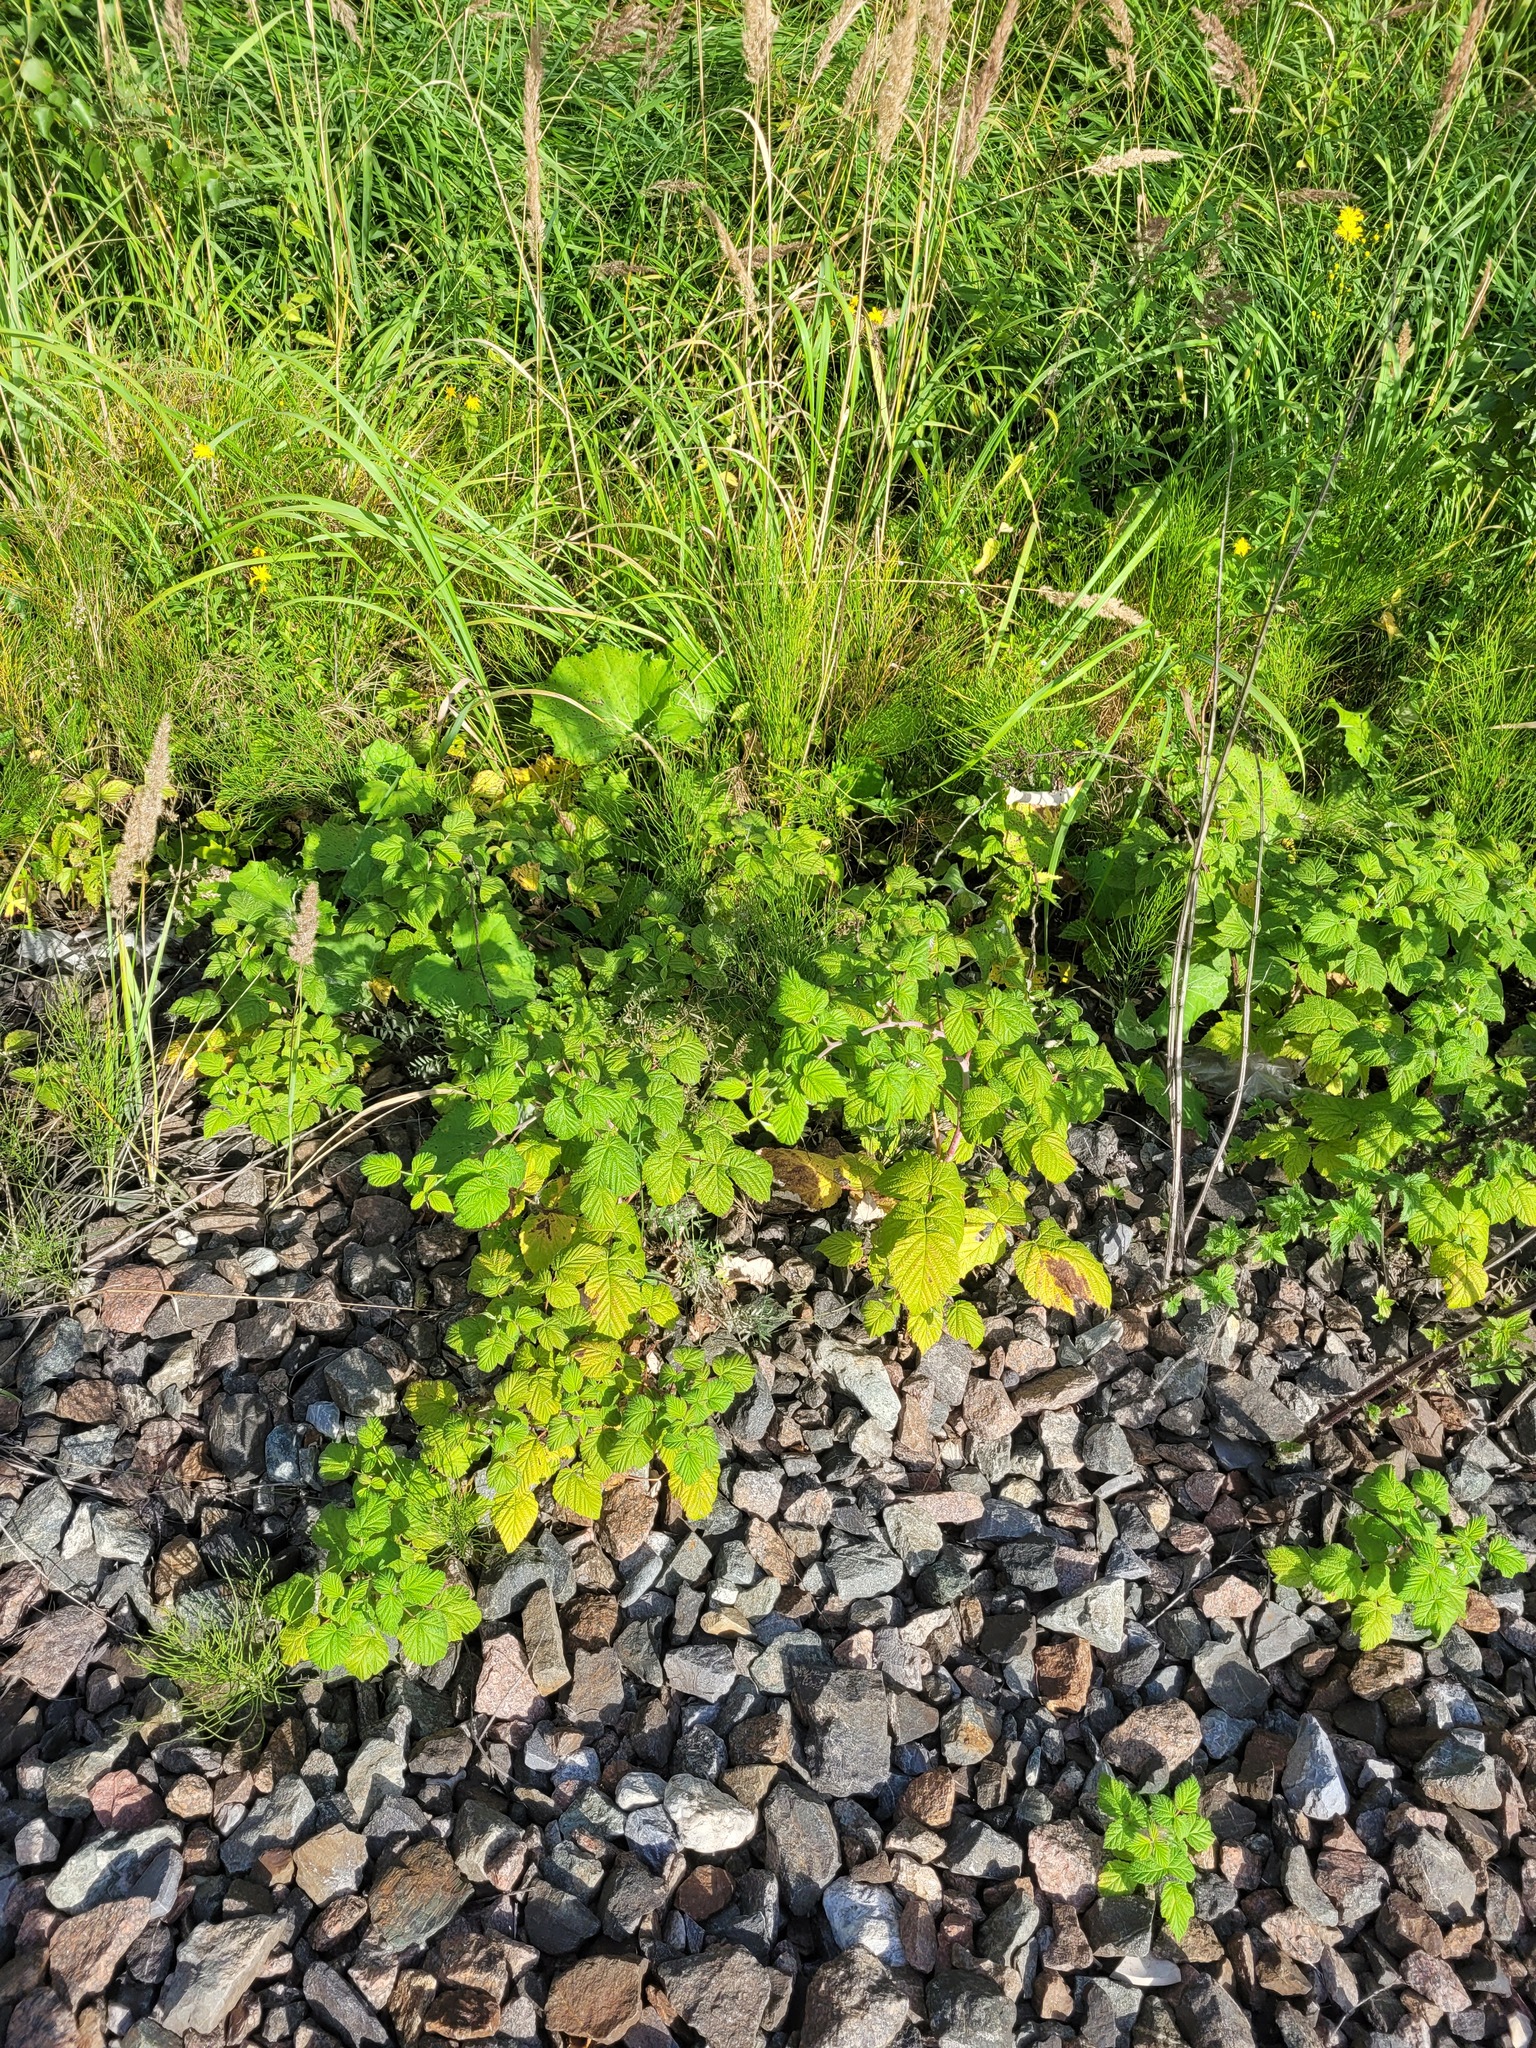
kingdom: Plantae
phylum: Tracheophyta
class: Magnoliopsida
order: Rosales
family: Rosaceae
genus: Rubus
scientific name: Rubus idaeus
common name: Raspberry
